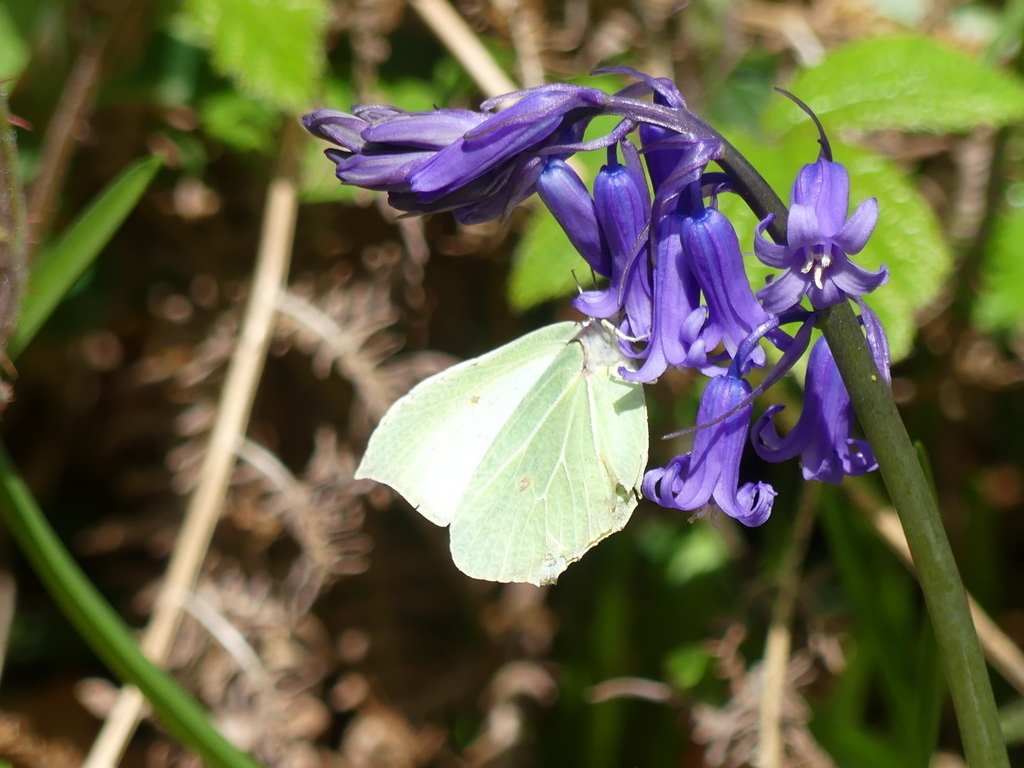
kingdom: Animalia
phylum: Arthropoda
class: Insecta
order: Lepidoptera
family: Pieridae
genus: Gonepteryx
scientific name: Gonepteryx rhamni
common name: Brimstone
